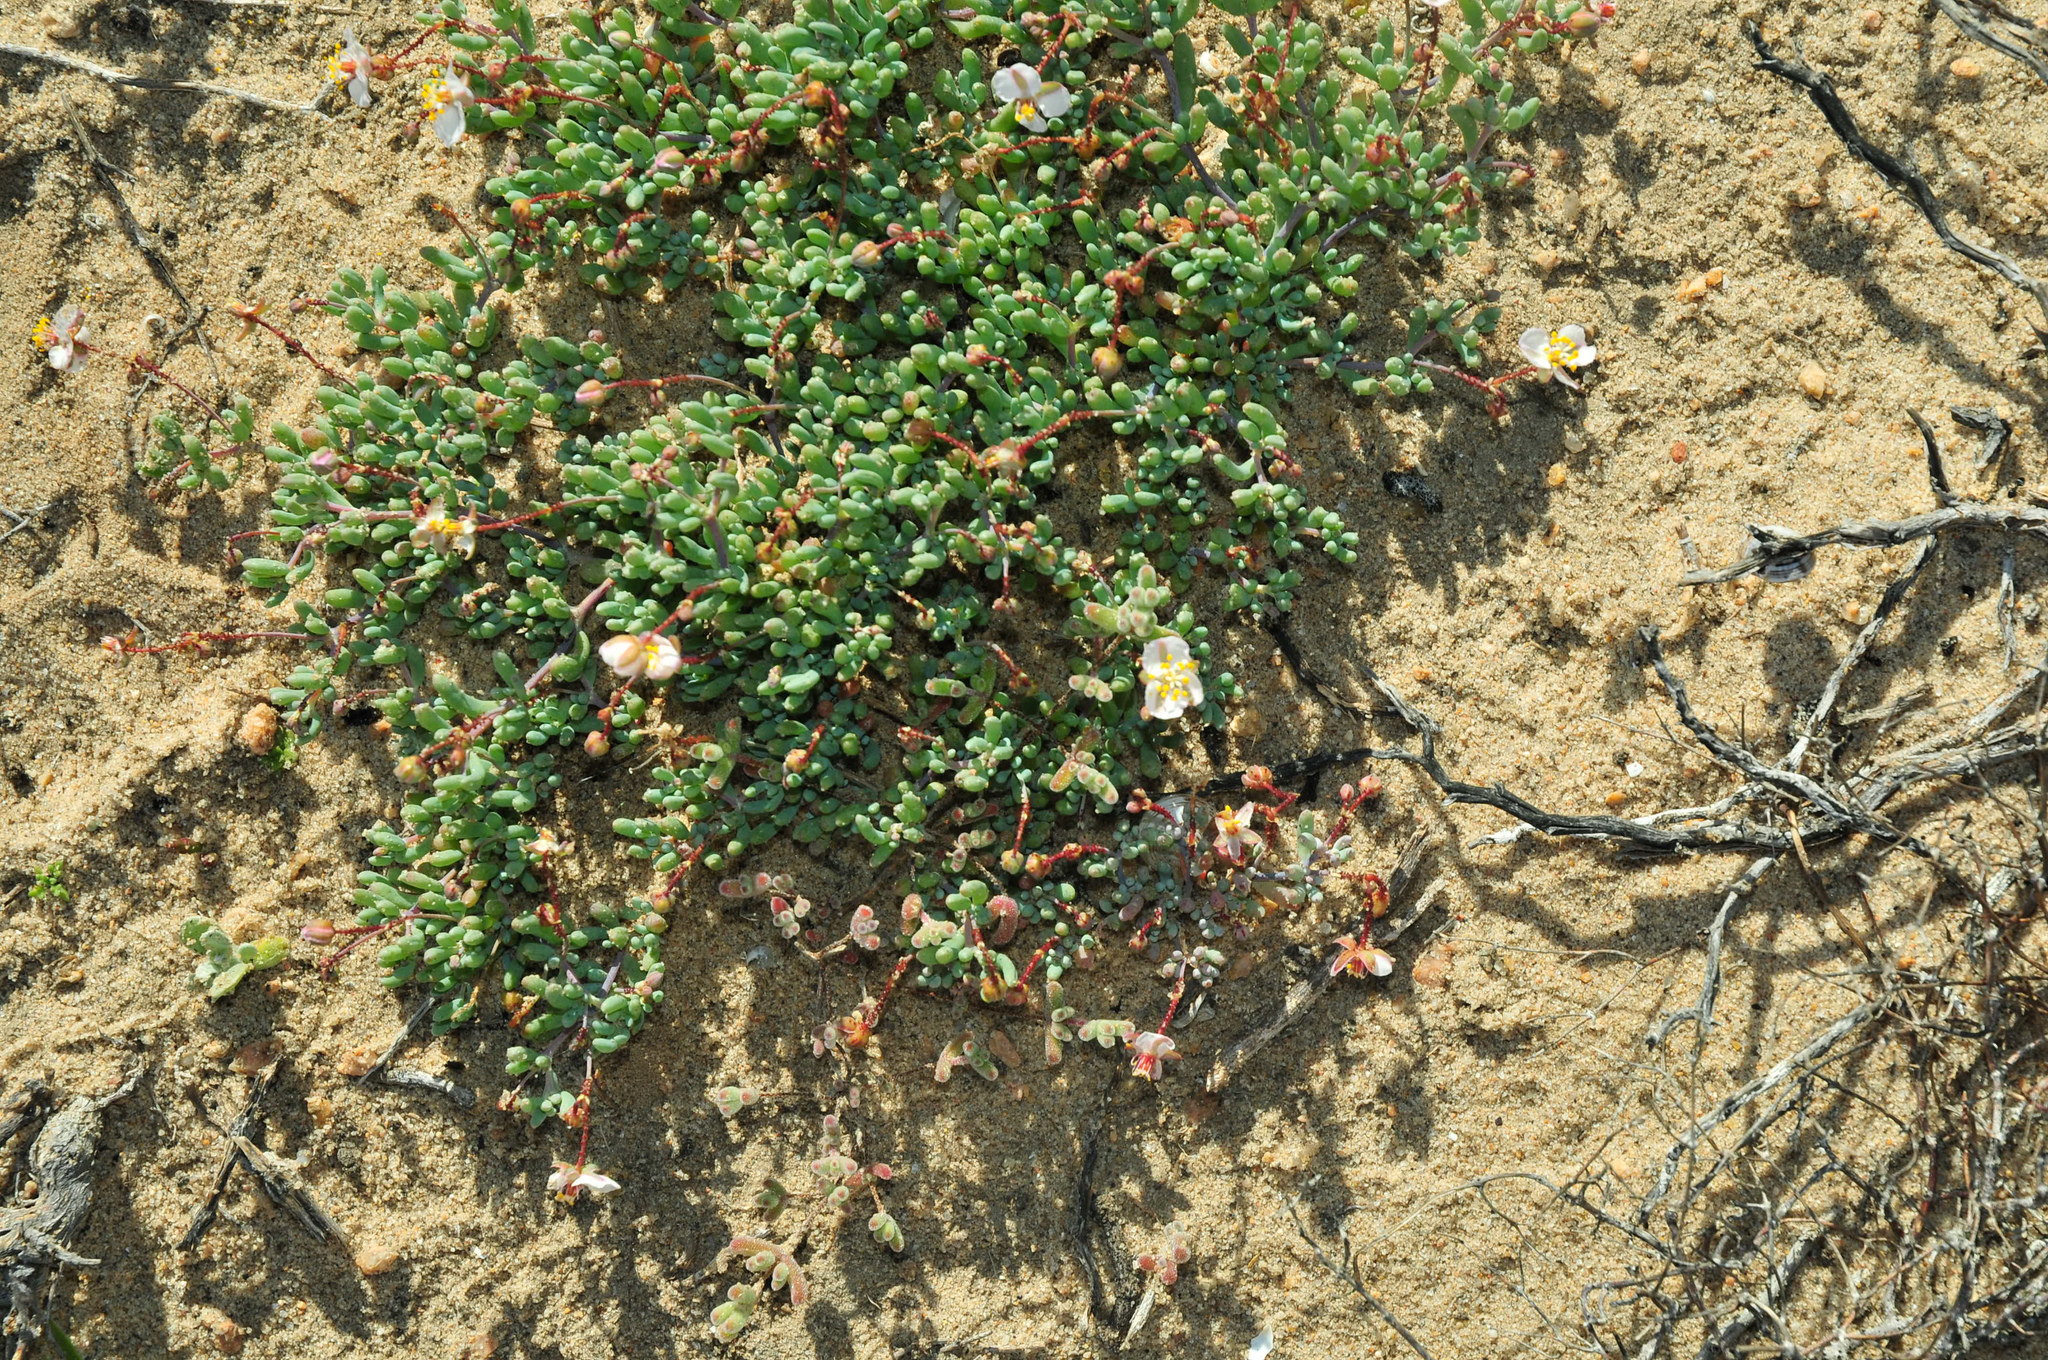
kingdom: Plantae
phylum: Tracheophyta
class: Magnoliopsida
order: Caryophyllales
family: Kewaceae
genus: Kewa
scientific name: Kewa angrae-pequenae
